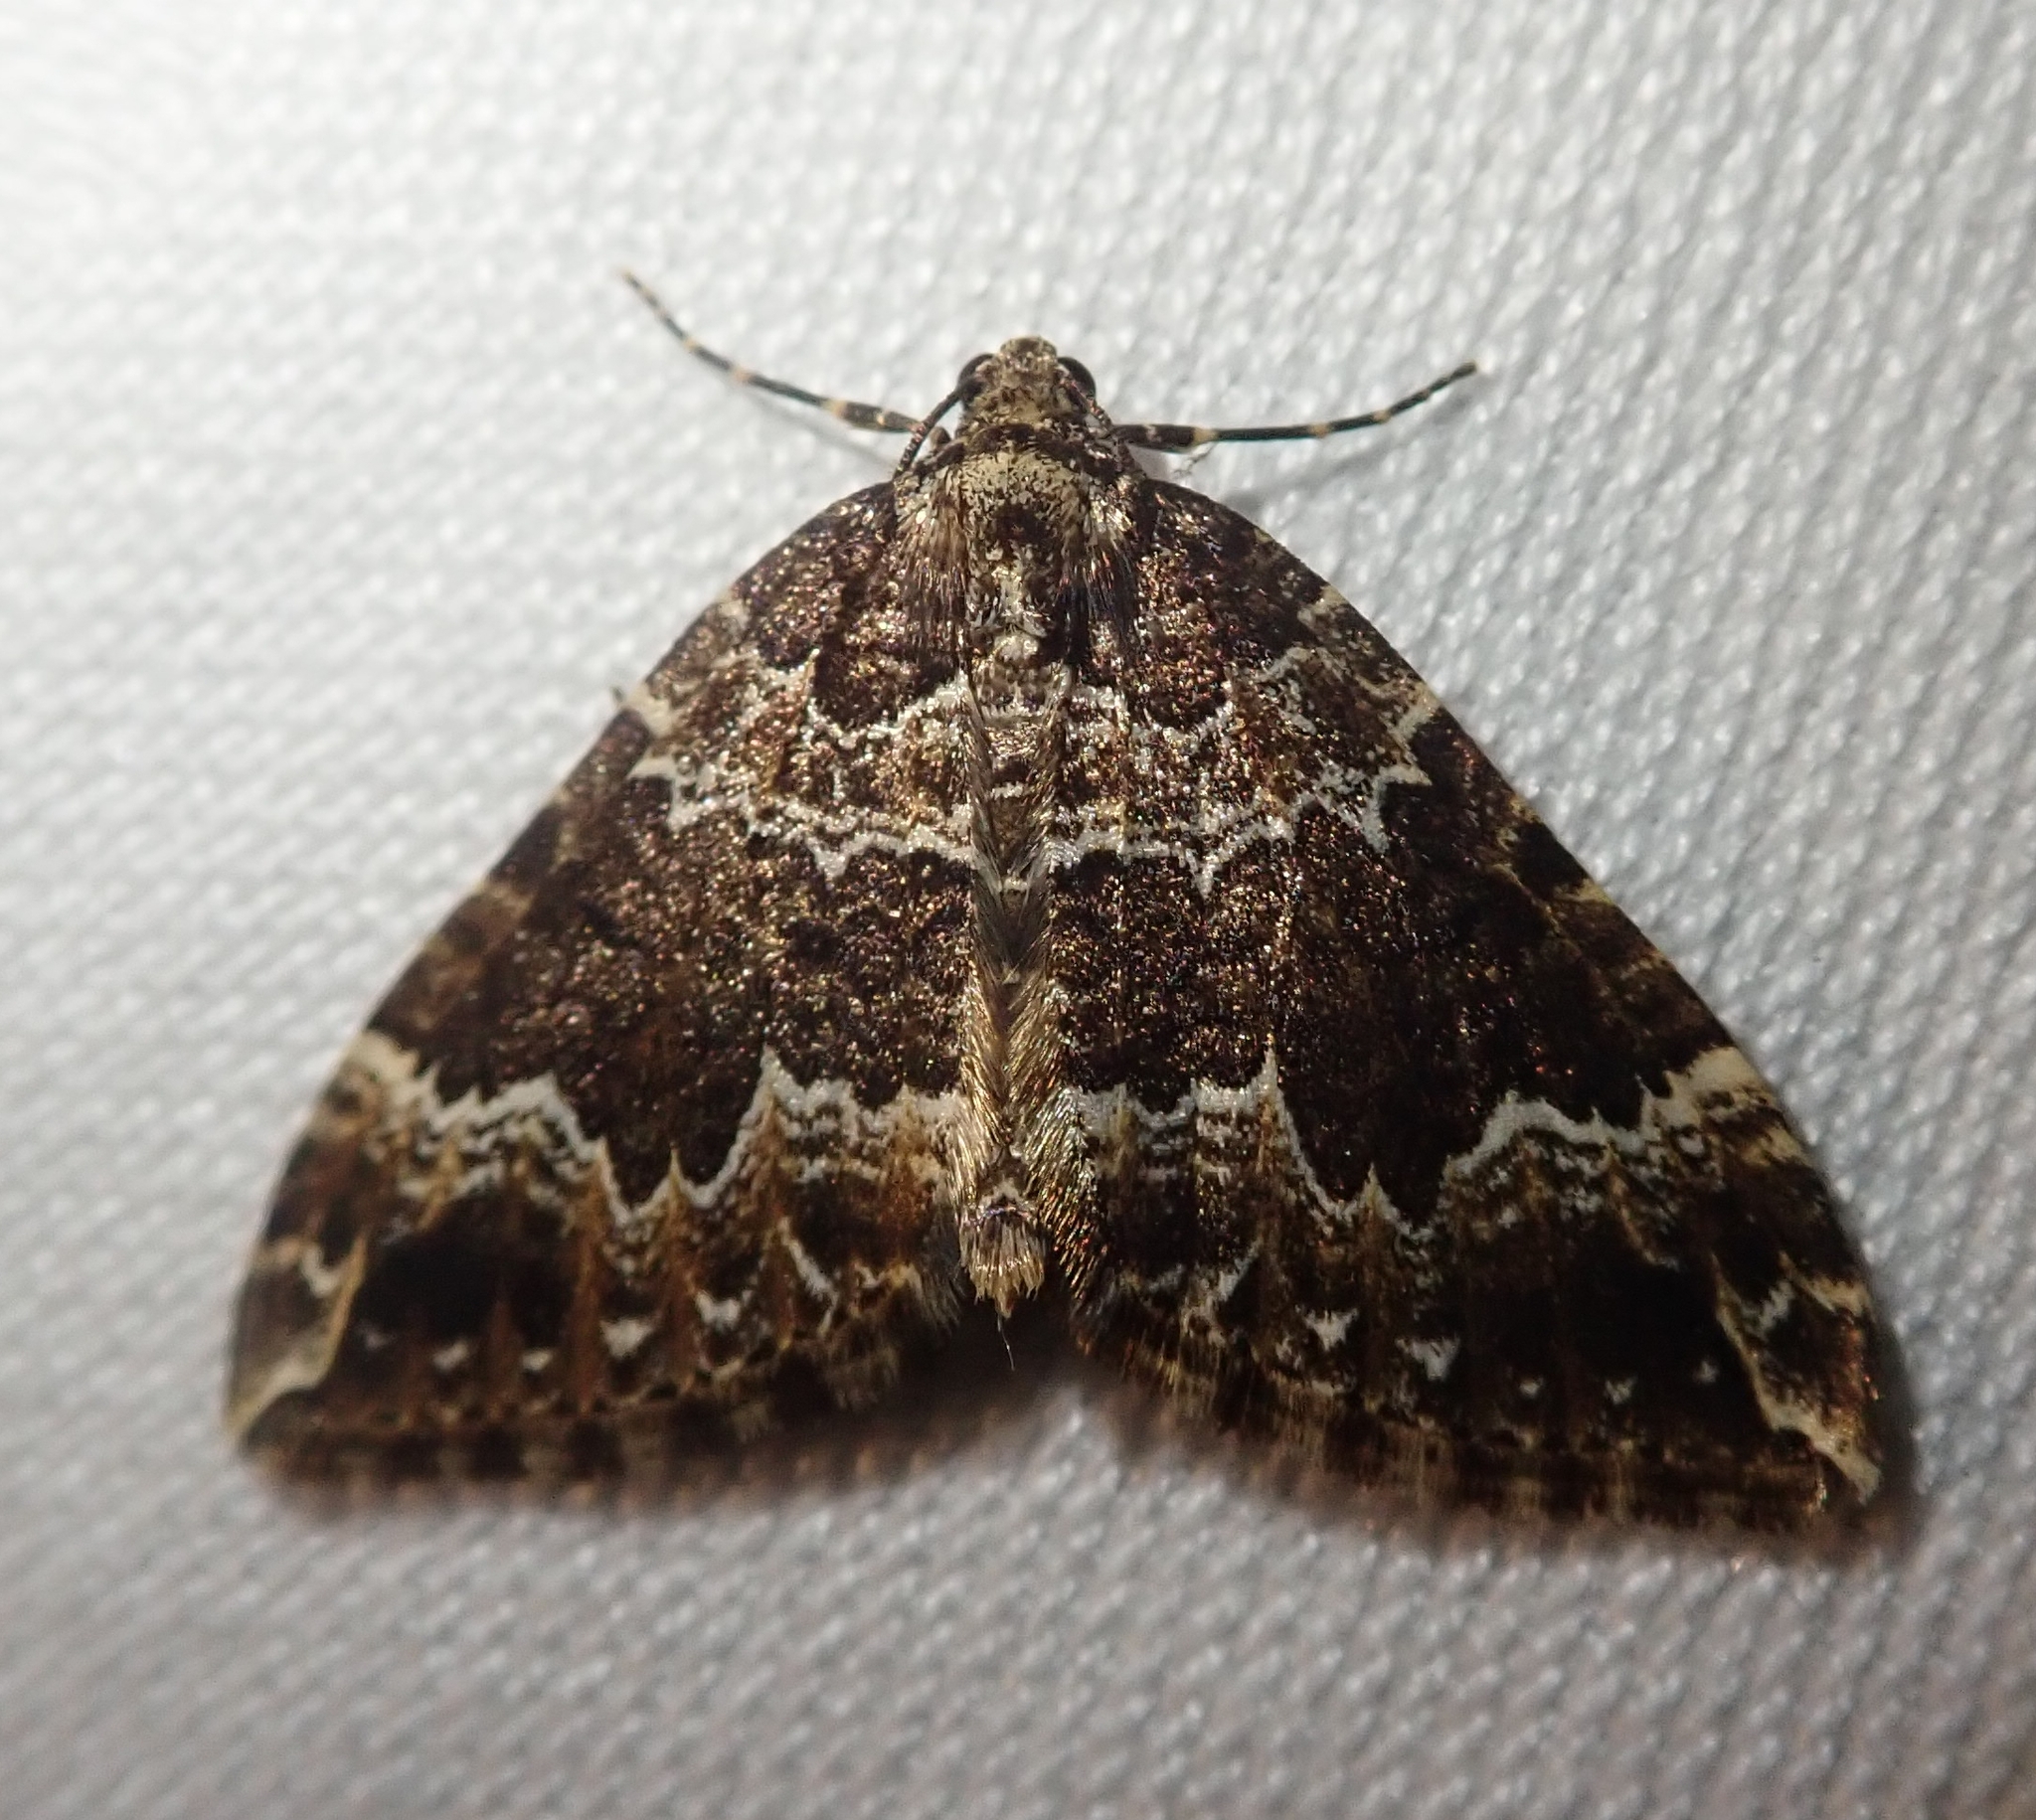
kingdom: Animalia
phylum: Arthropoda
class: Insecta
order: Lepidoptera
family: Geometridae
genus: Lampropteryx
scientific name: Lampropteryx suffumata
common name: Water carpet
